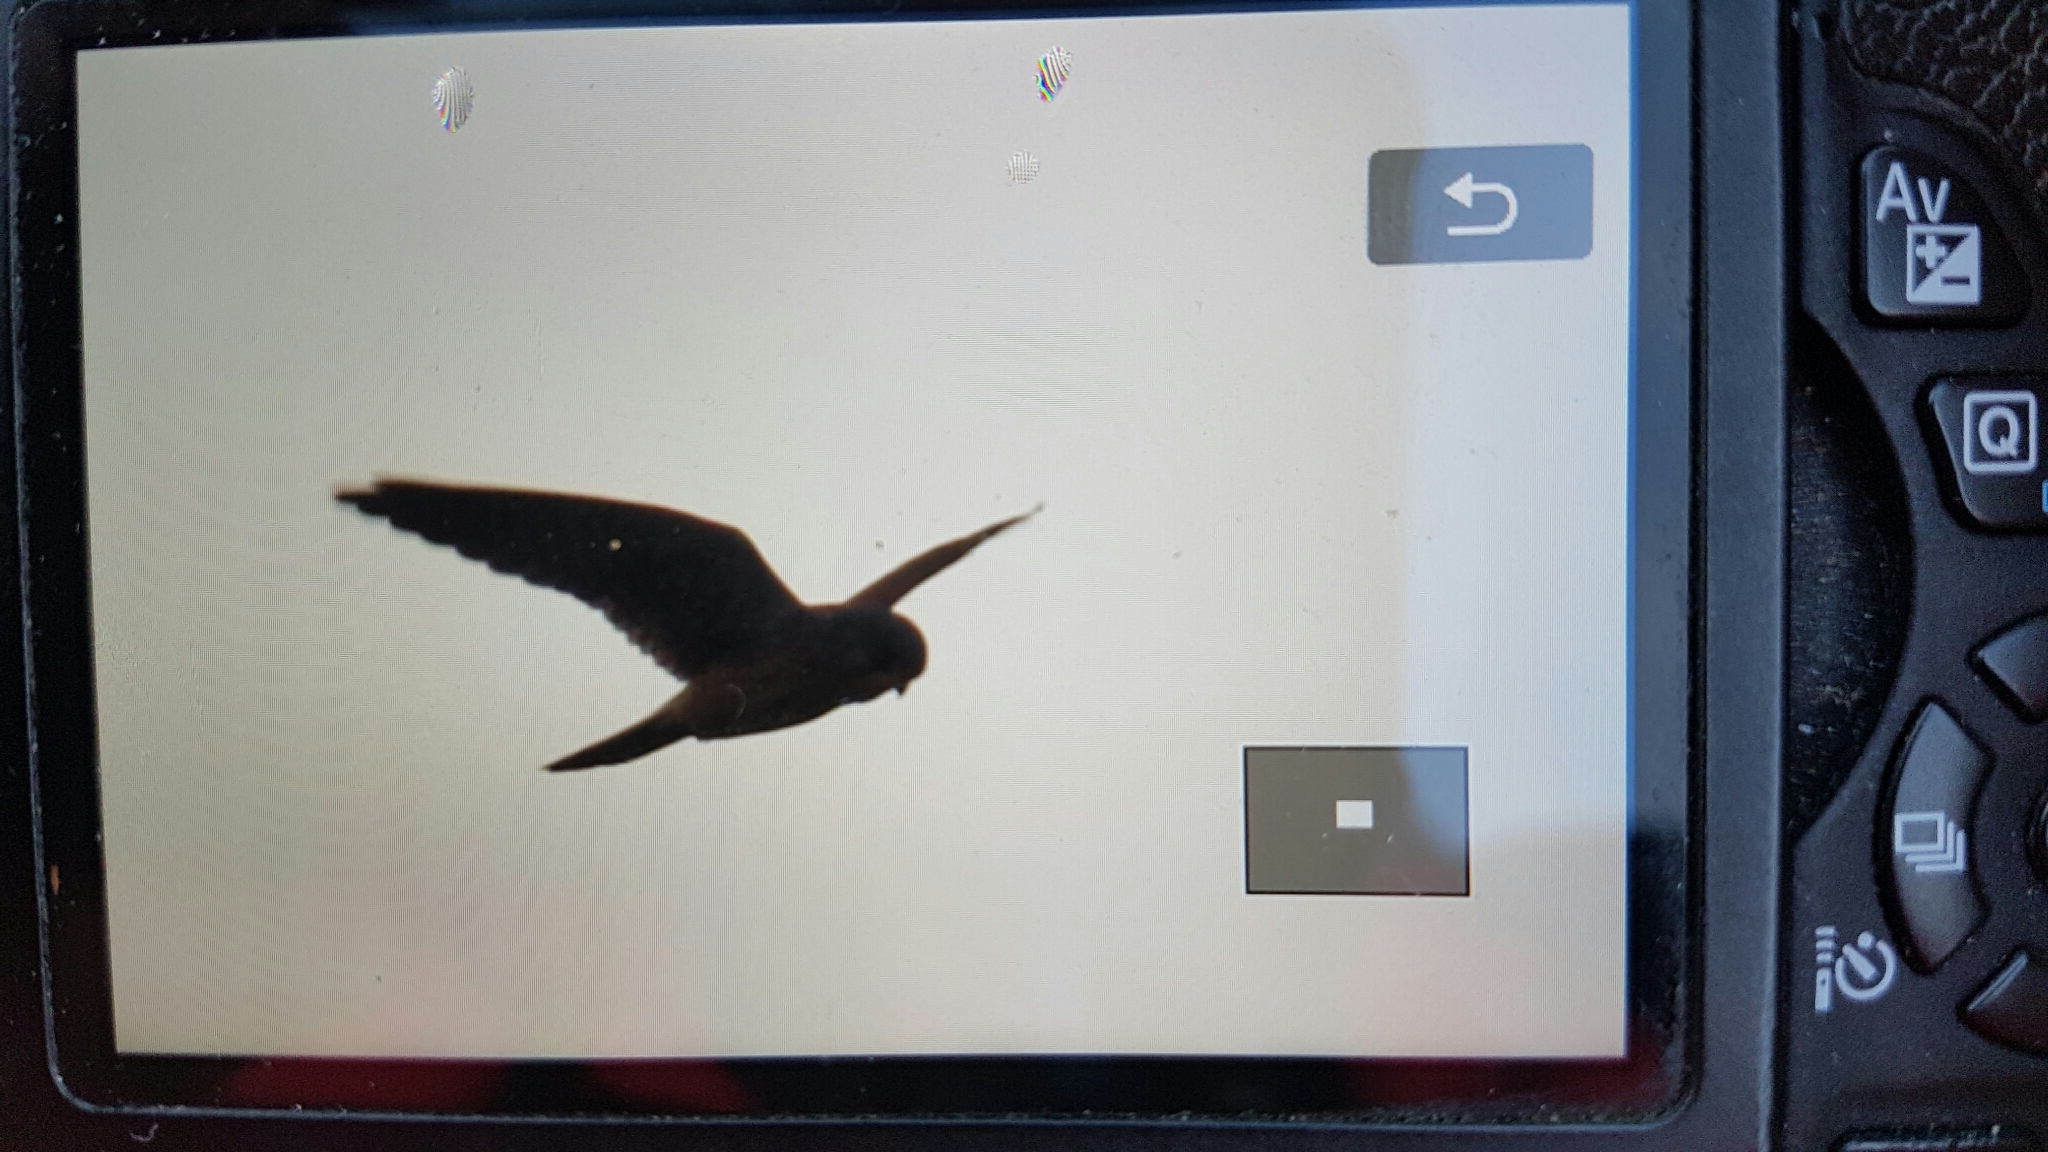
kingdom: Animalia
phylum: Chordata
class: Aves
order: Falconiformes
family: Falconidae
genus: Falco
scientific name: Falco tinnunculus
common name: Common kestrel
